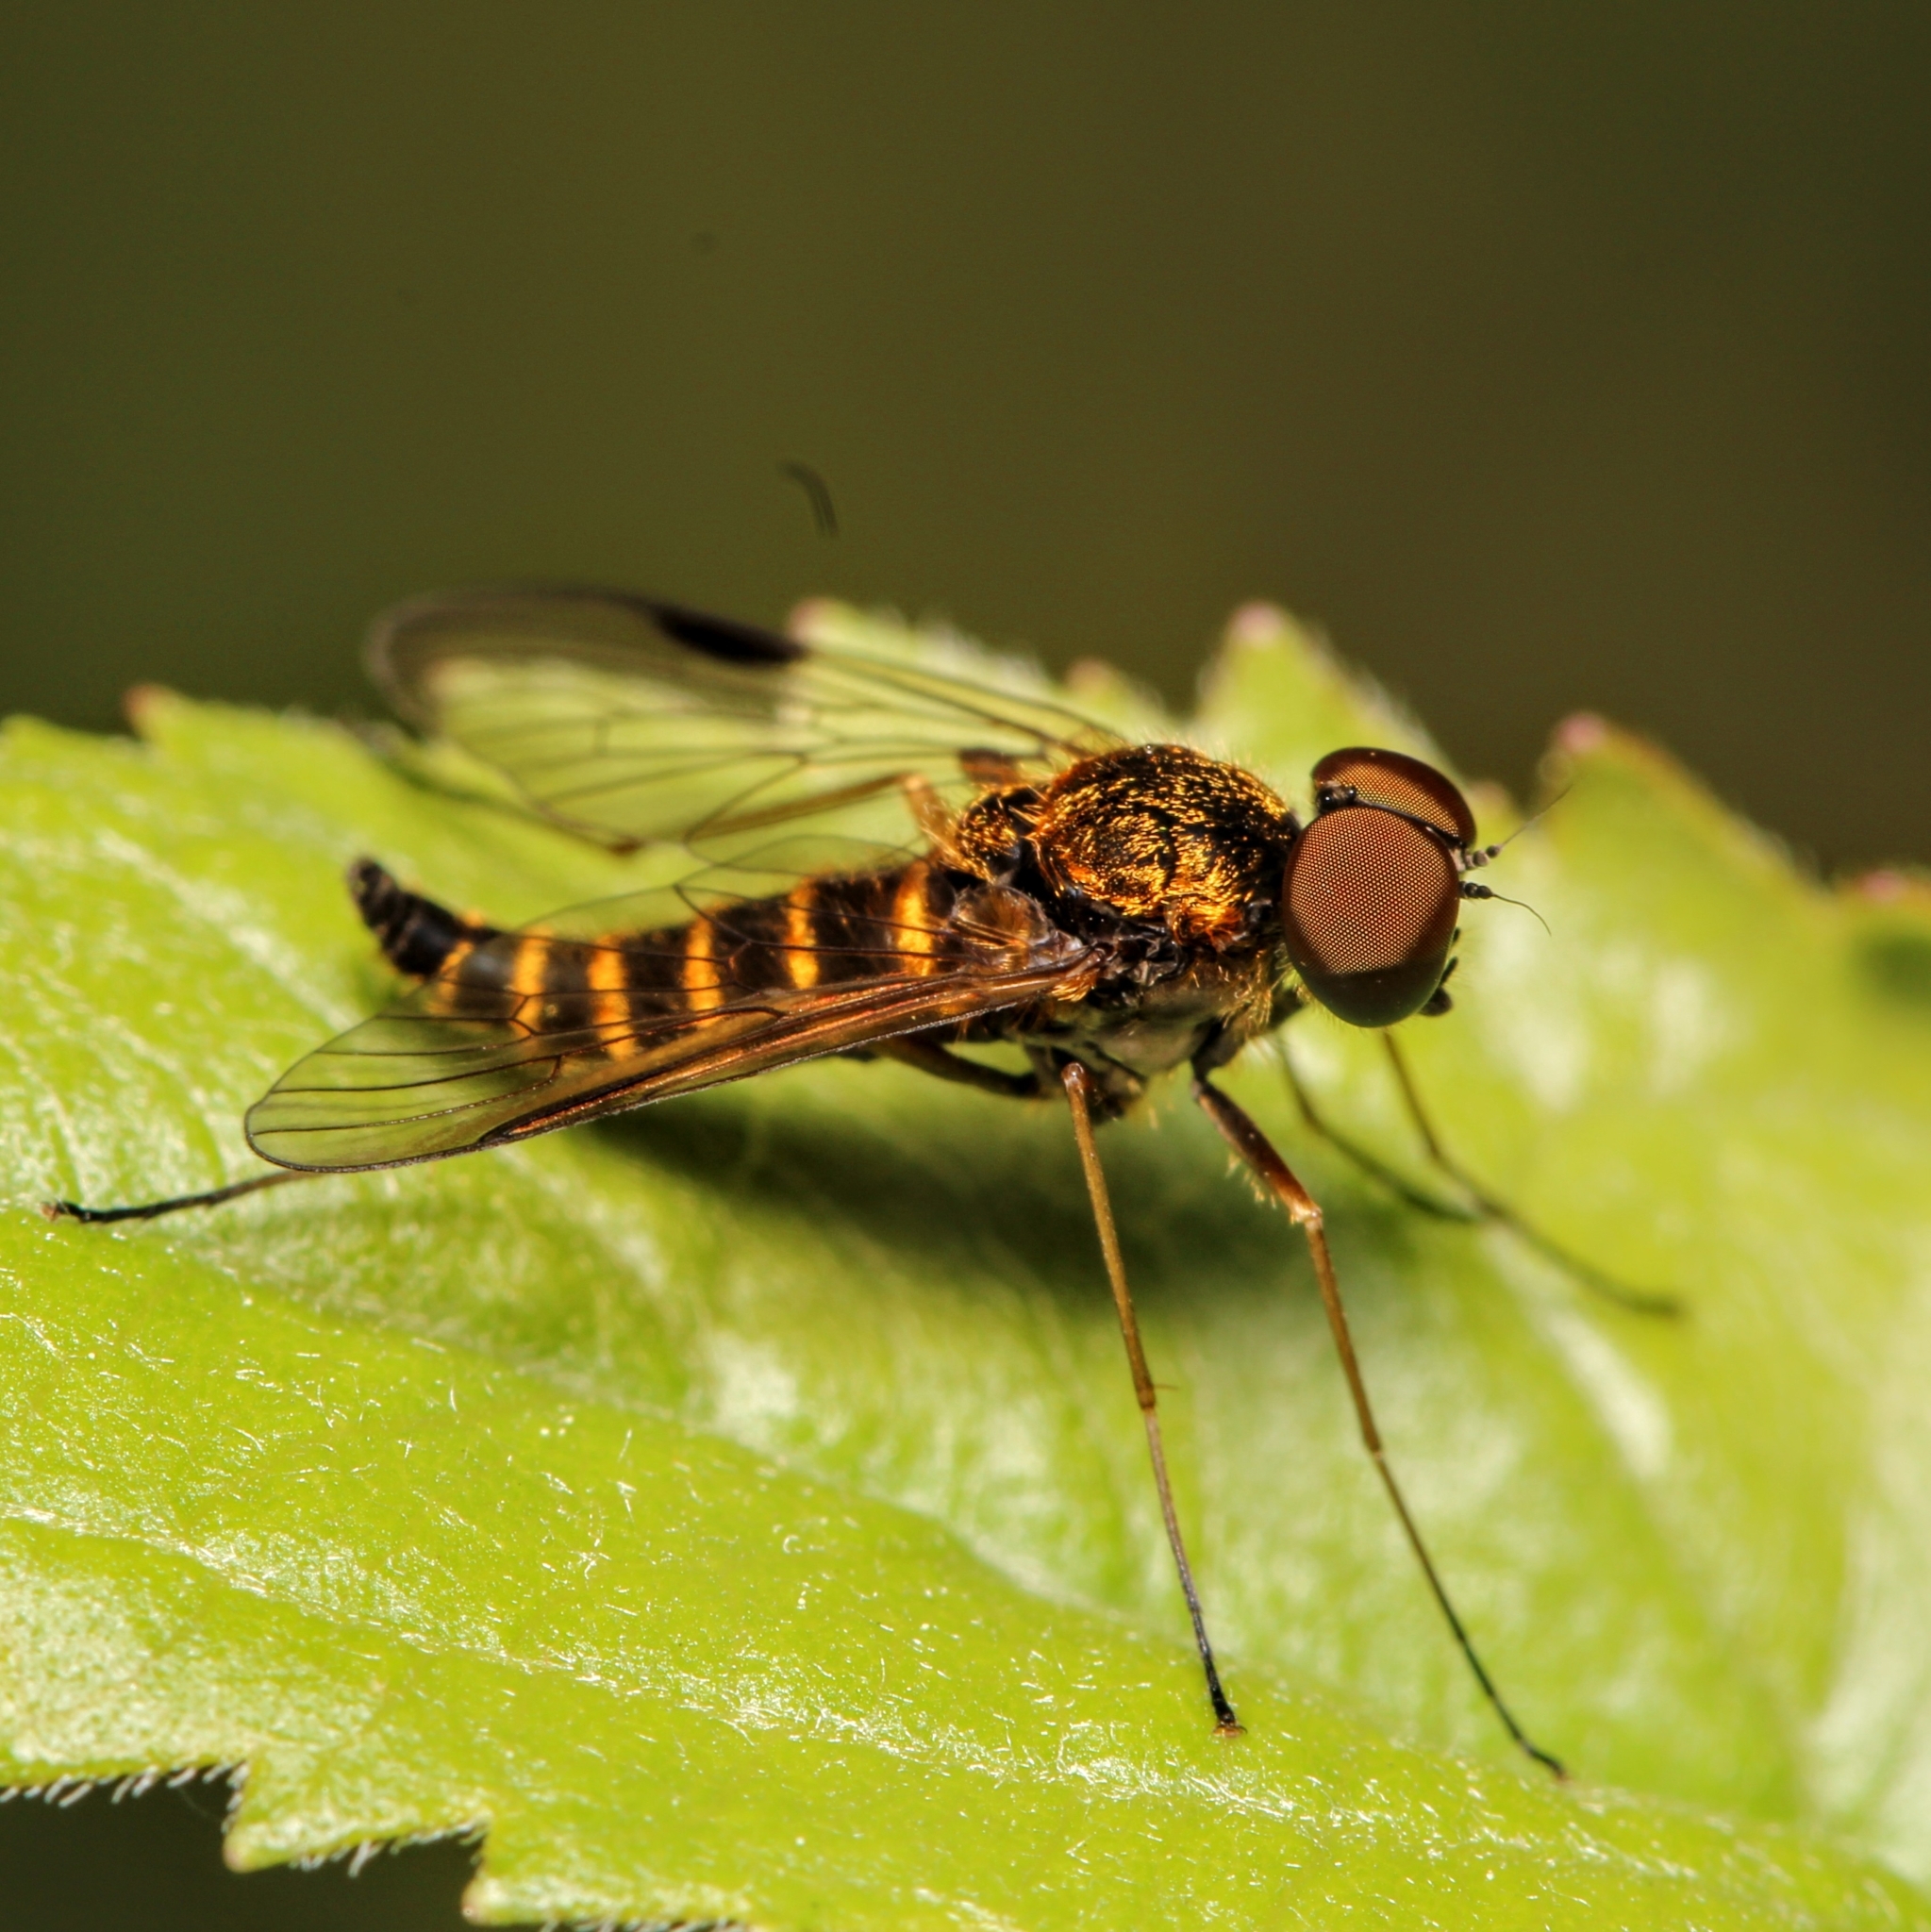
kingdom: Animalia
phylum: Arthropoda
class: Insecta
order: Diptera
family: Rhagionidae
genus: Chrysopilus
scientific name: Chrysopilus fasciatus
